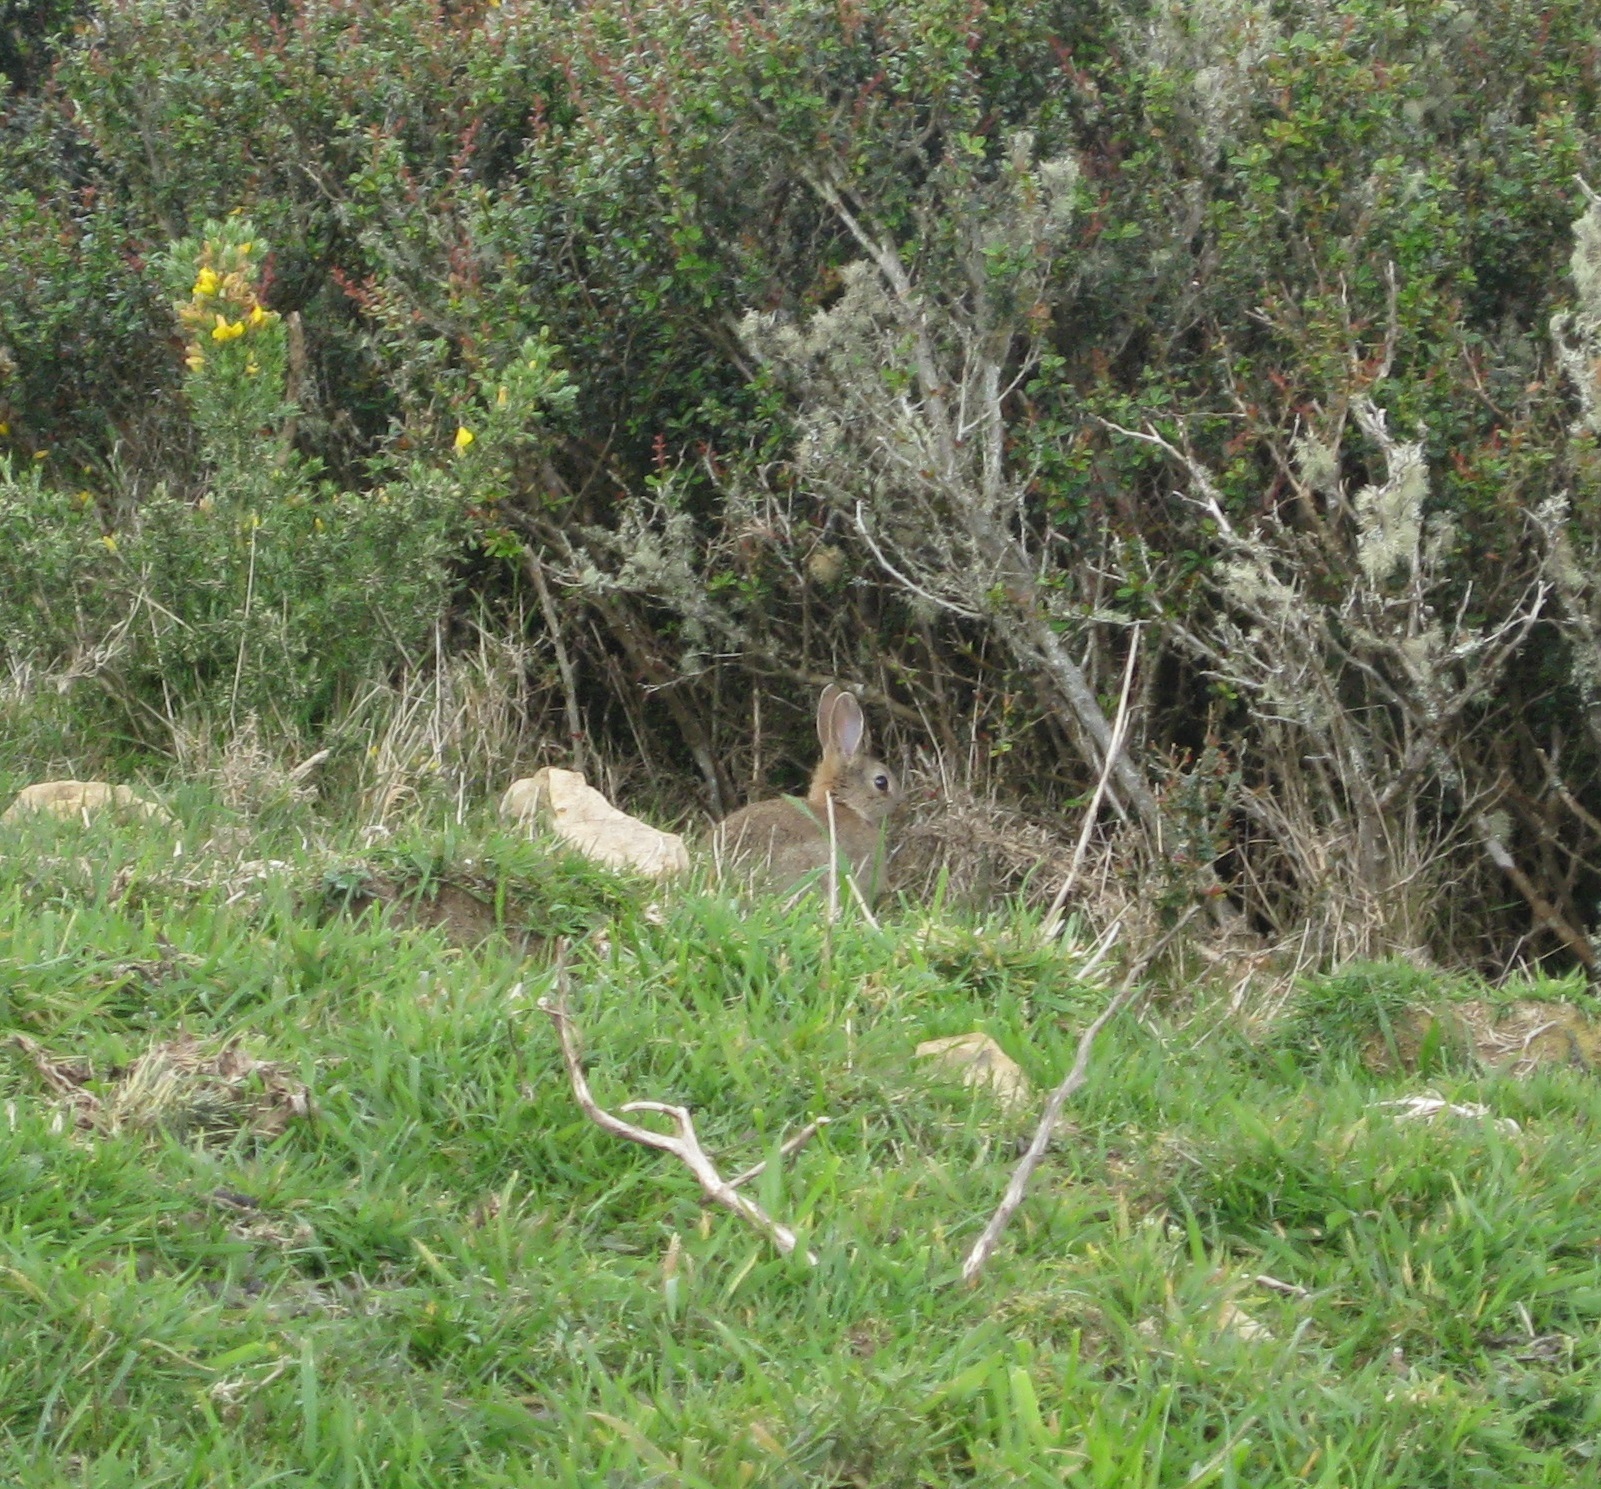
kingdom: Animalia
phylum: Chordata
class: Mammalia
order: Lagomorpha
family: Leporidae
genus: Oryctolagus
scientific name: Oryctolagus cuniculus
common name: European rabbit
